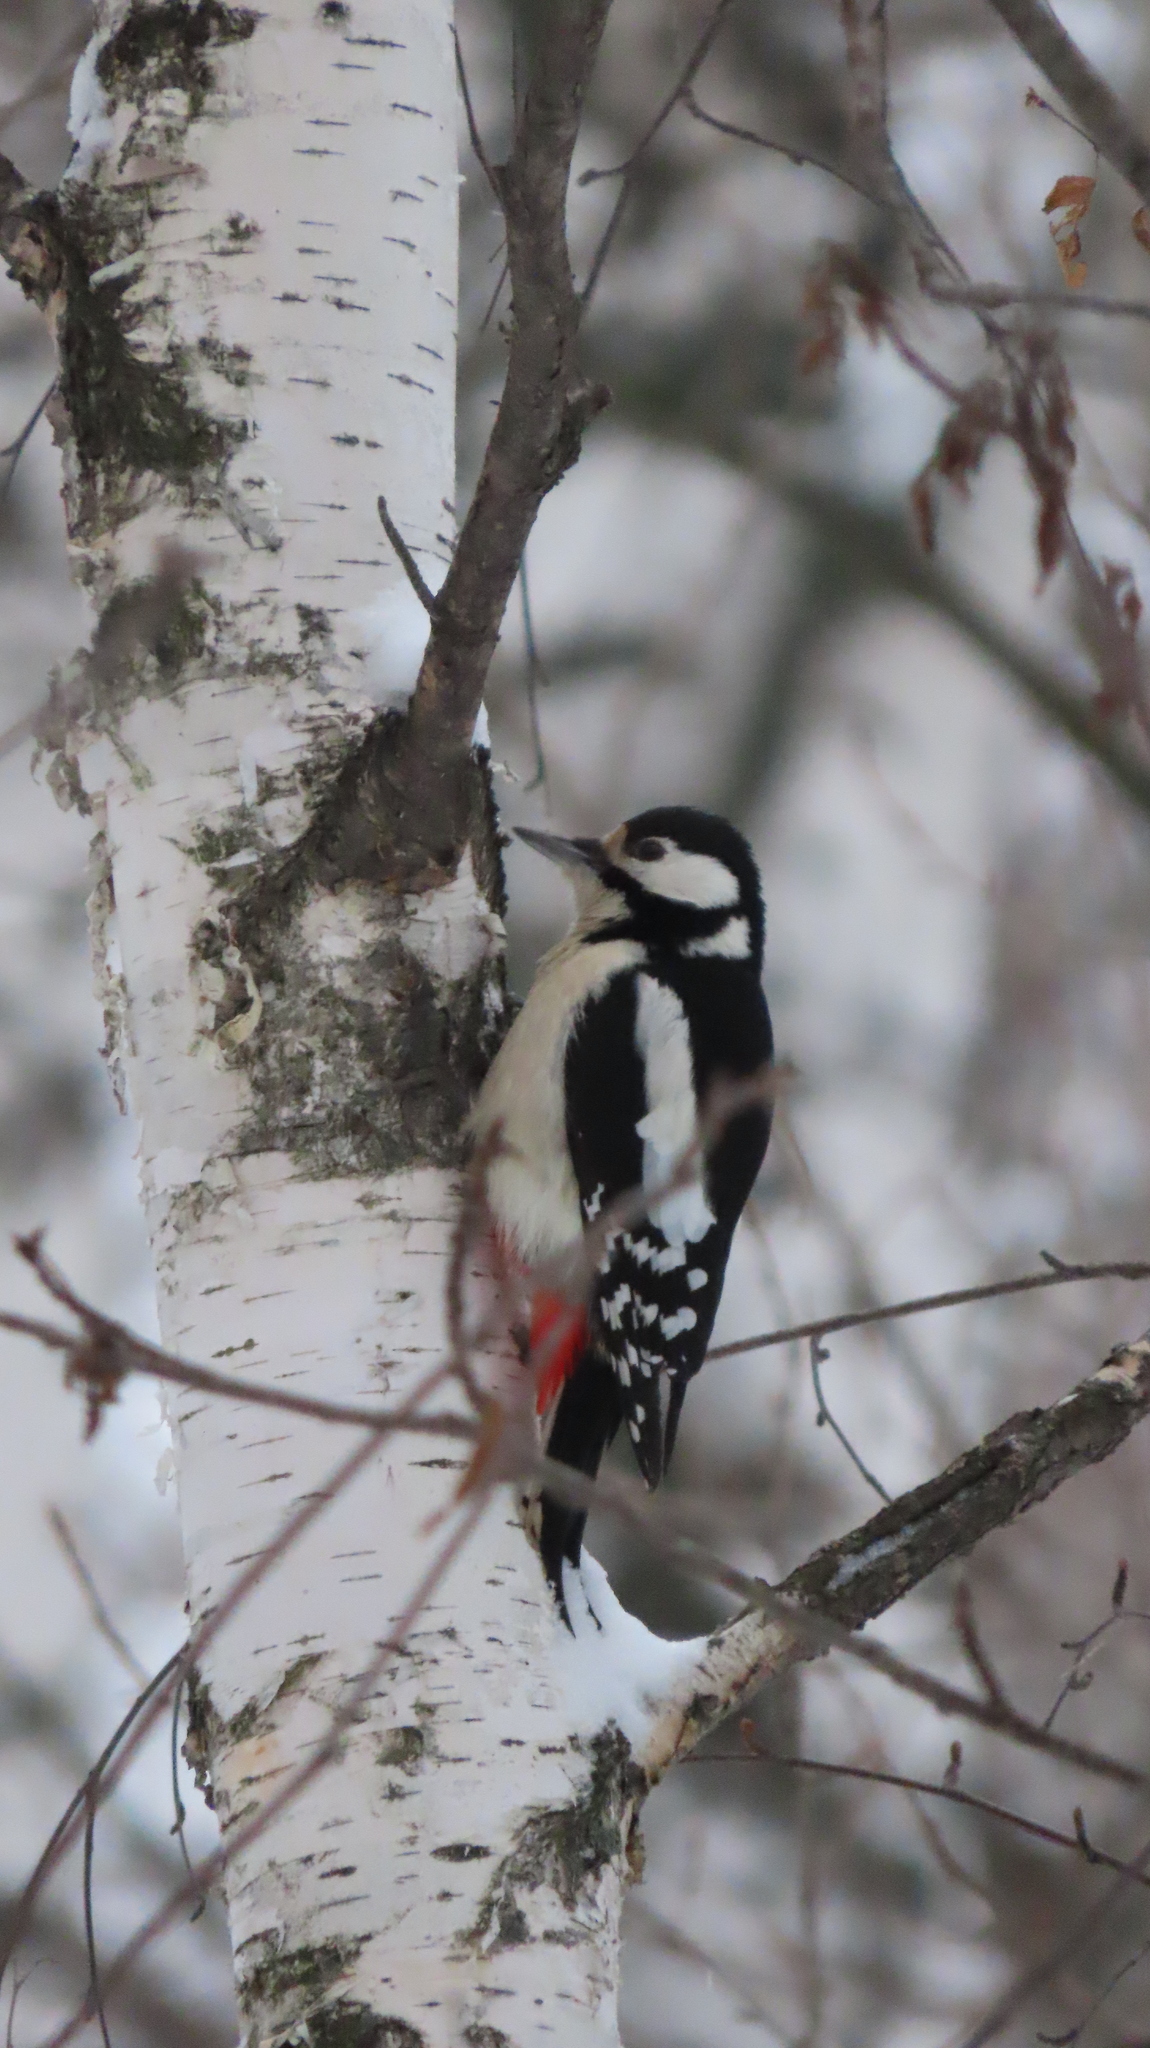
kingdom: Animalia
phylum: Chordata
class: Aves
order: Piciformes
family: Picidae
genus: Dendrocopos
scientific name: Dendrocopos major
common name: Great spotted woodpecker
